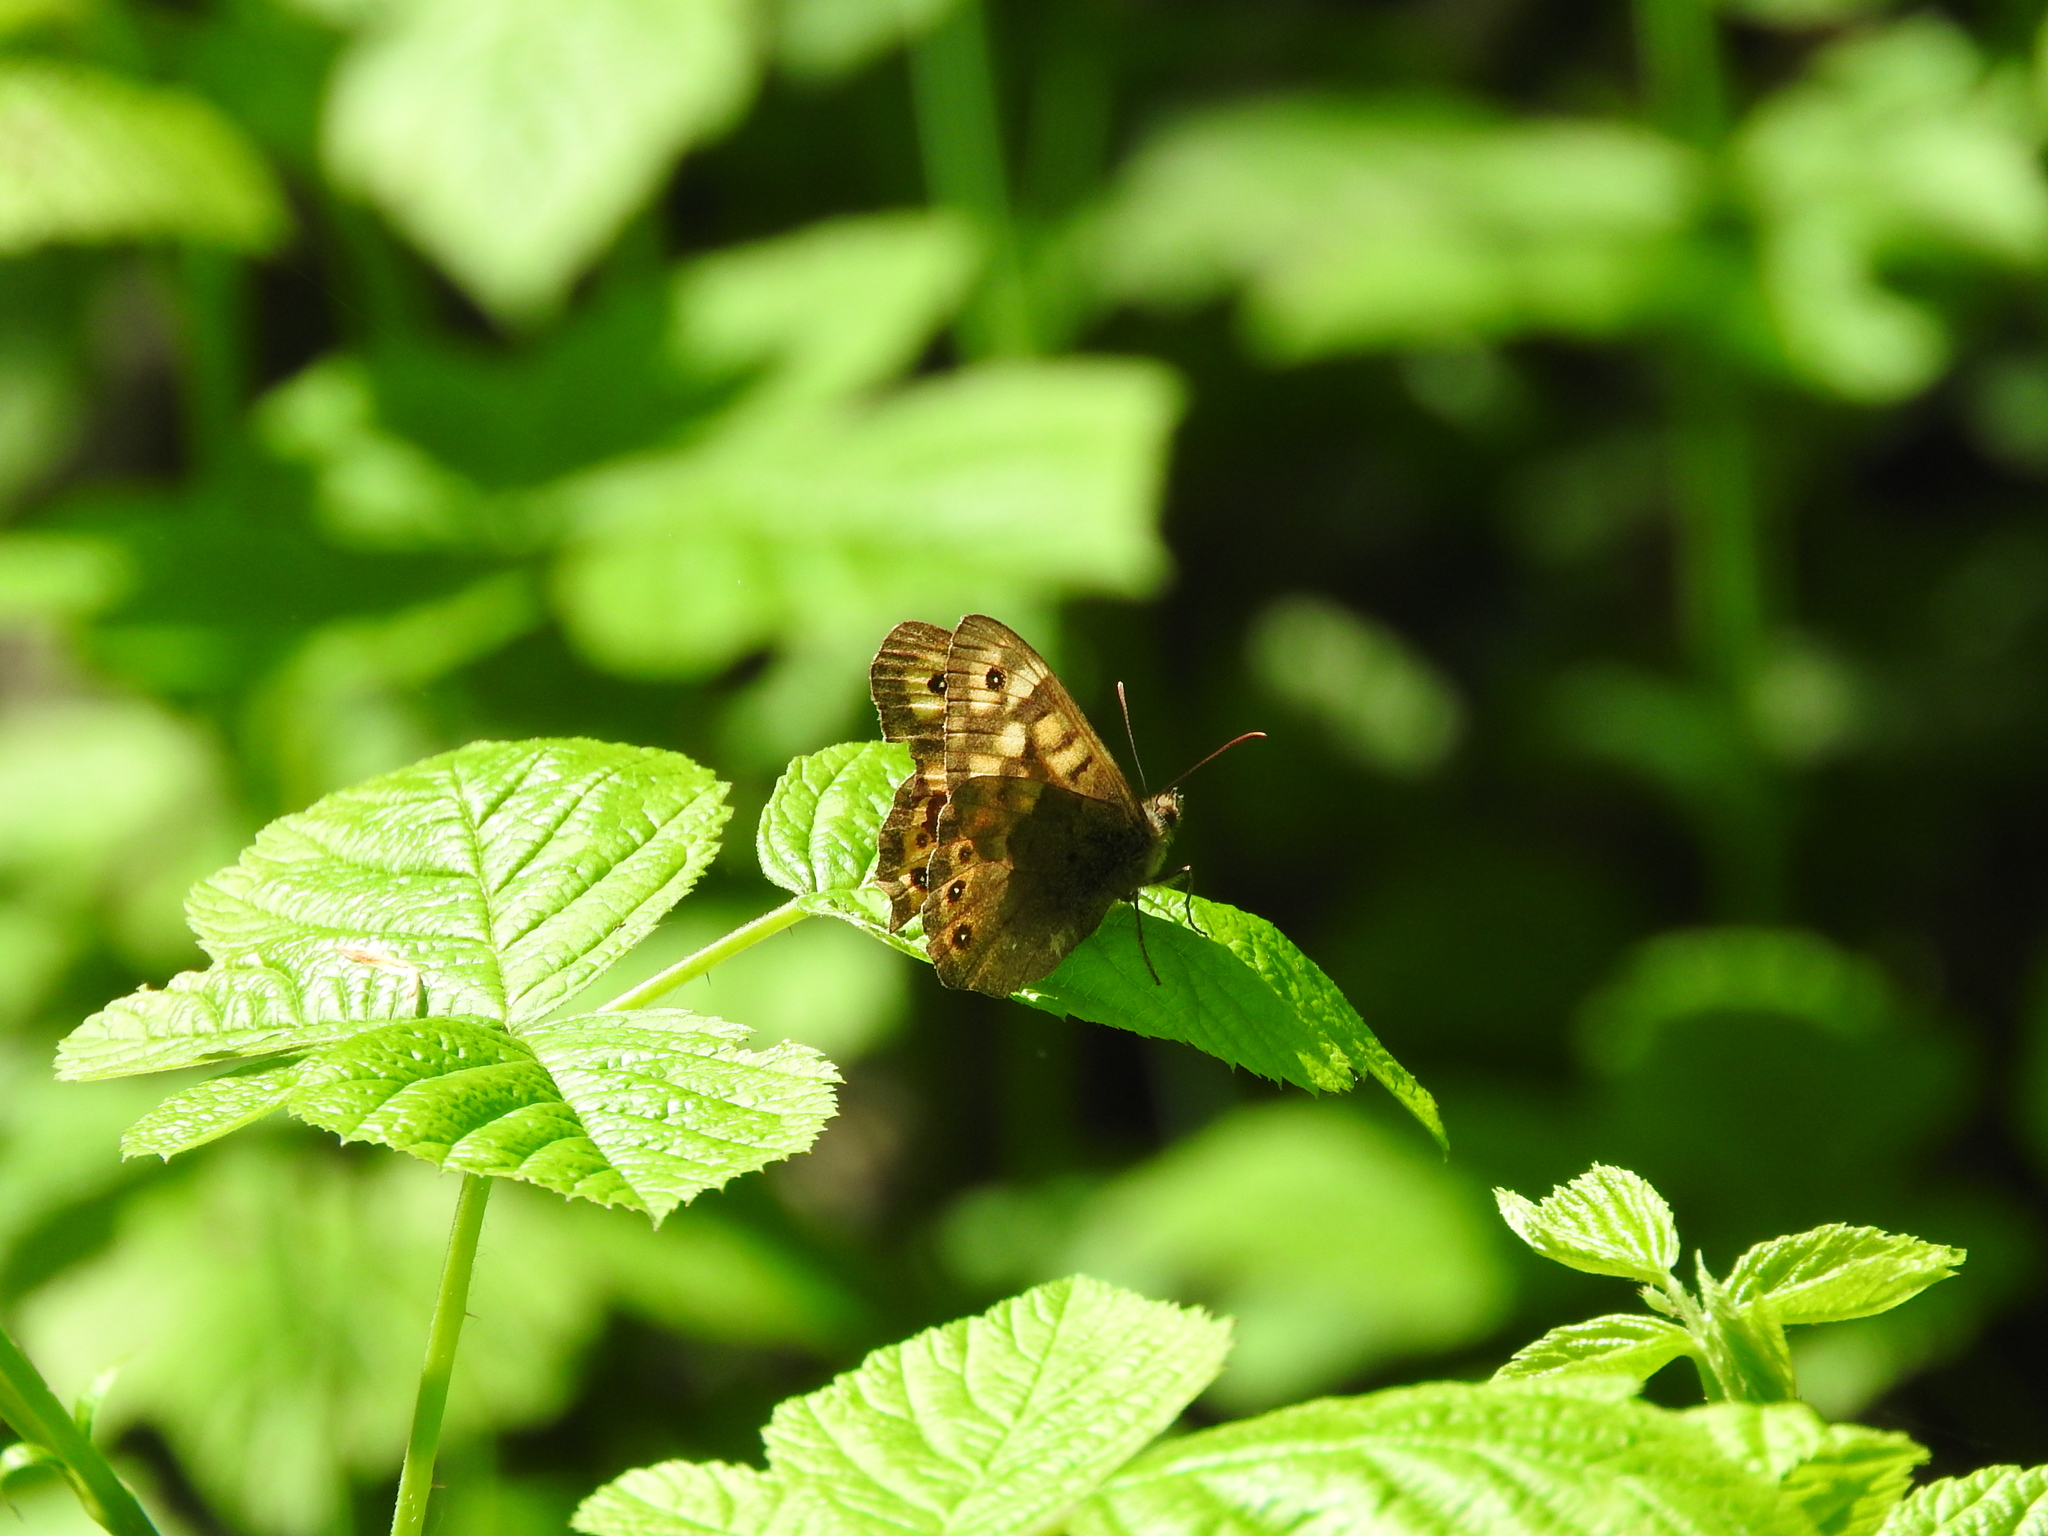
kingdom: Animalia
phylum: Arthropoda
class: Insecta
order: Lepidoptera
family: Nymphalidae
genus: Pararge
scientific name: Pararge aegeria
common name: Speckled wood
